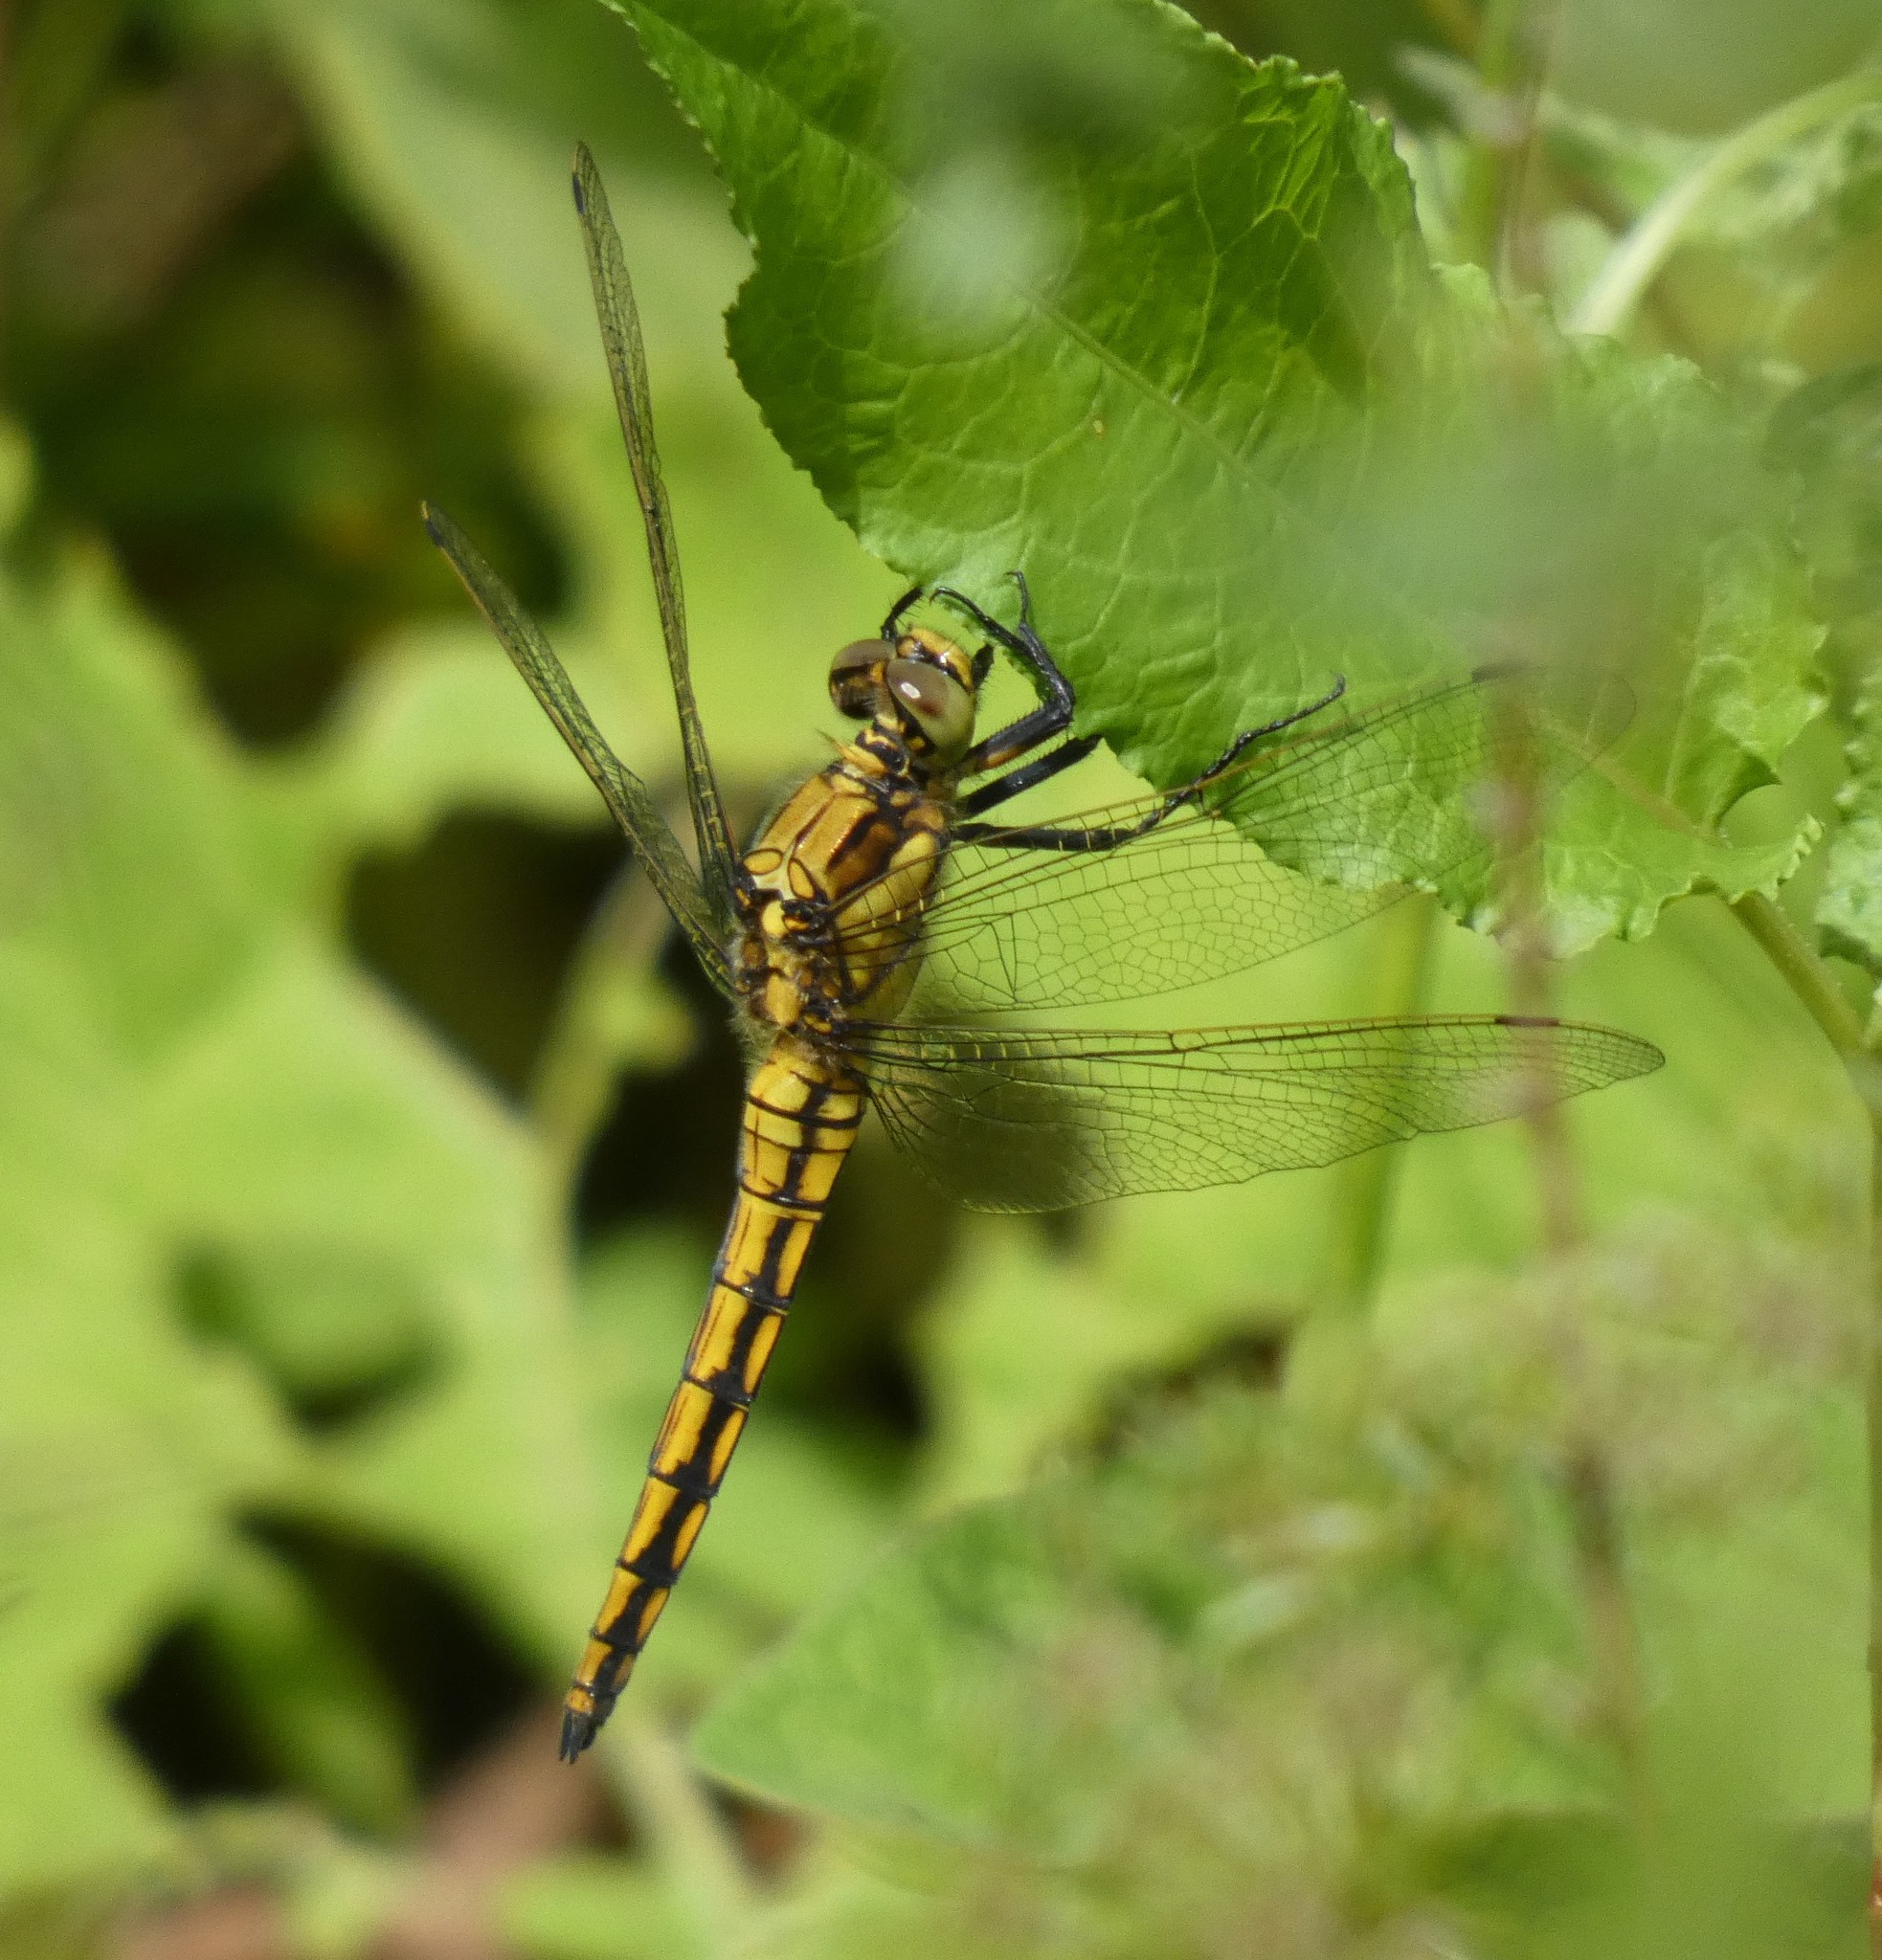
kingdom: Animalia
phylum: Arthropoda
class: Insecta
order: Odonata
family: Libellulidae
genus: Orthetrum
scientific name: Orthetrum cancellatum
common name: Black-tailed skimmer
